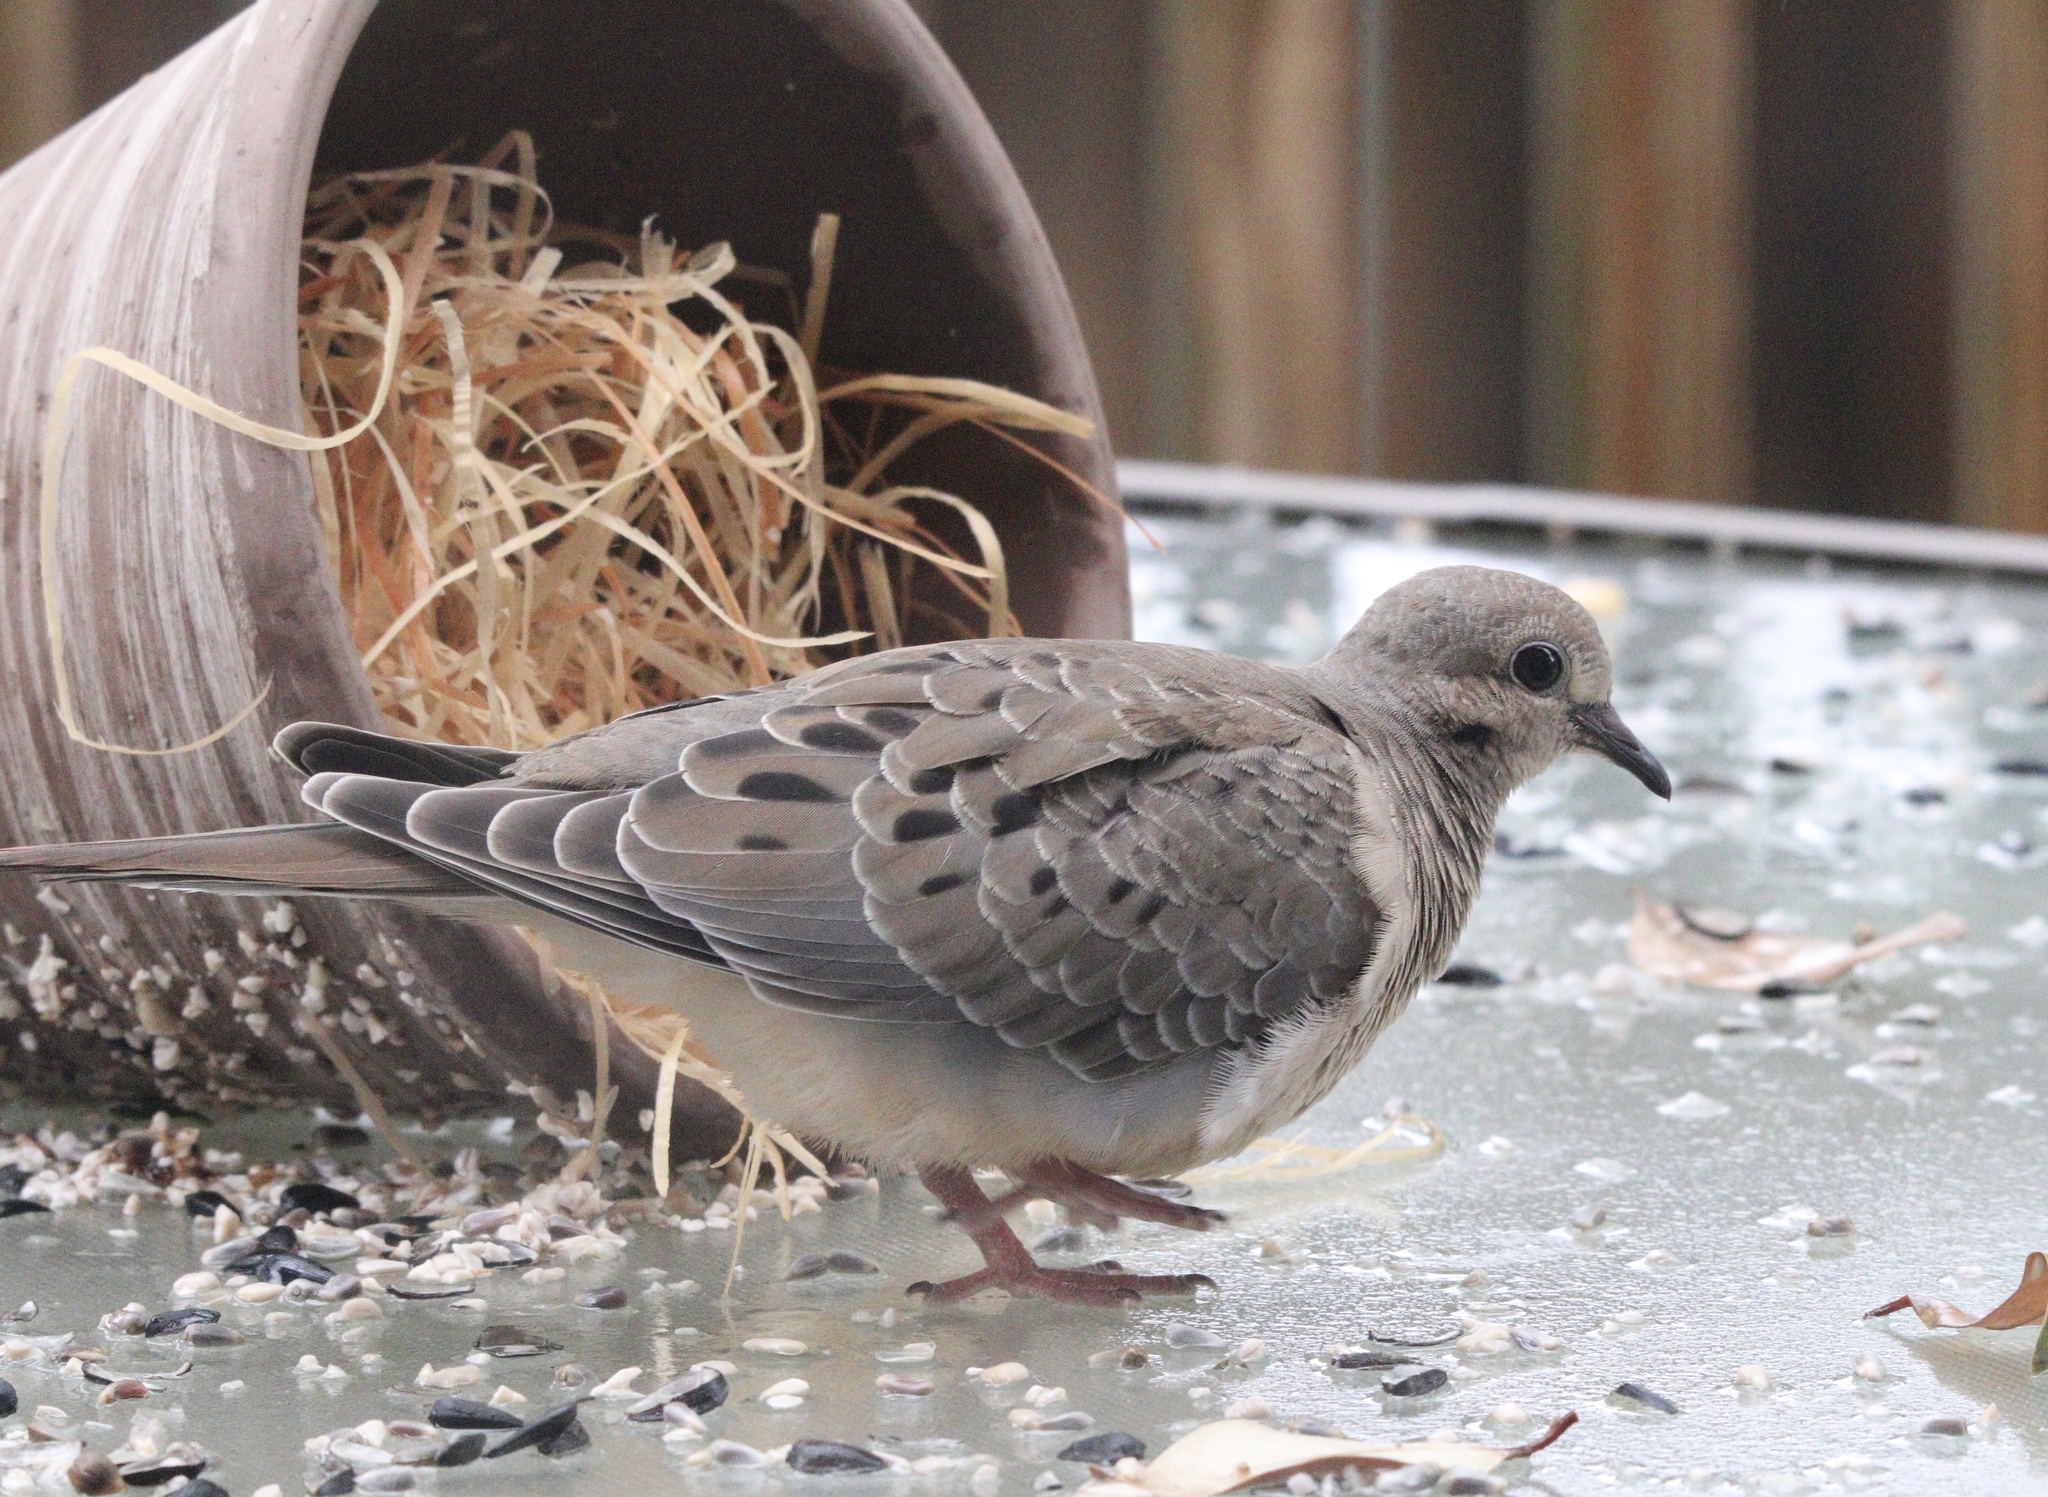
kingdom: Animalia
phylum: Chordata
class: Aves
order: Columbiformes
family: Columbidae
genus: Zenaida
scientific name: Zenaida macroura
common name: Mourning dove
